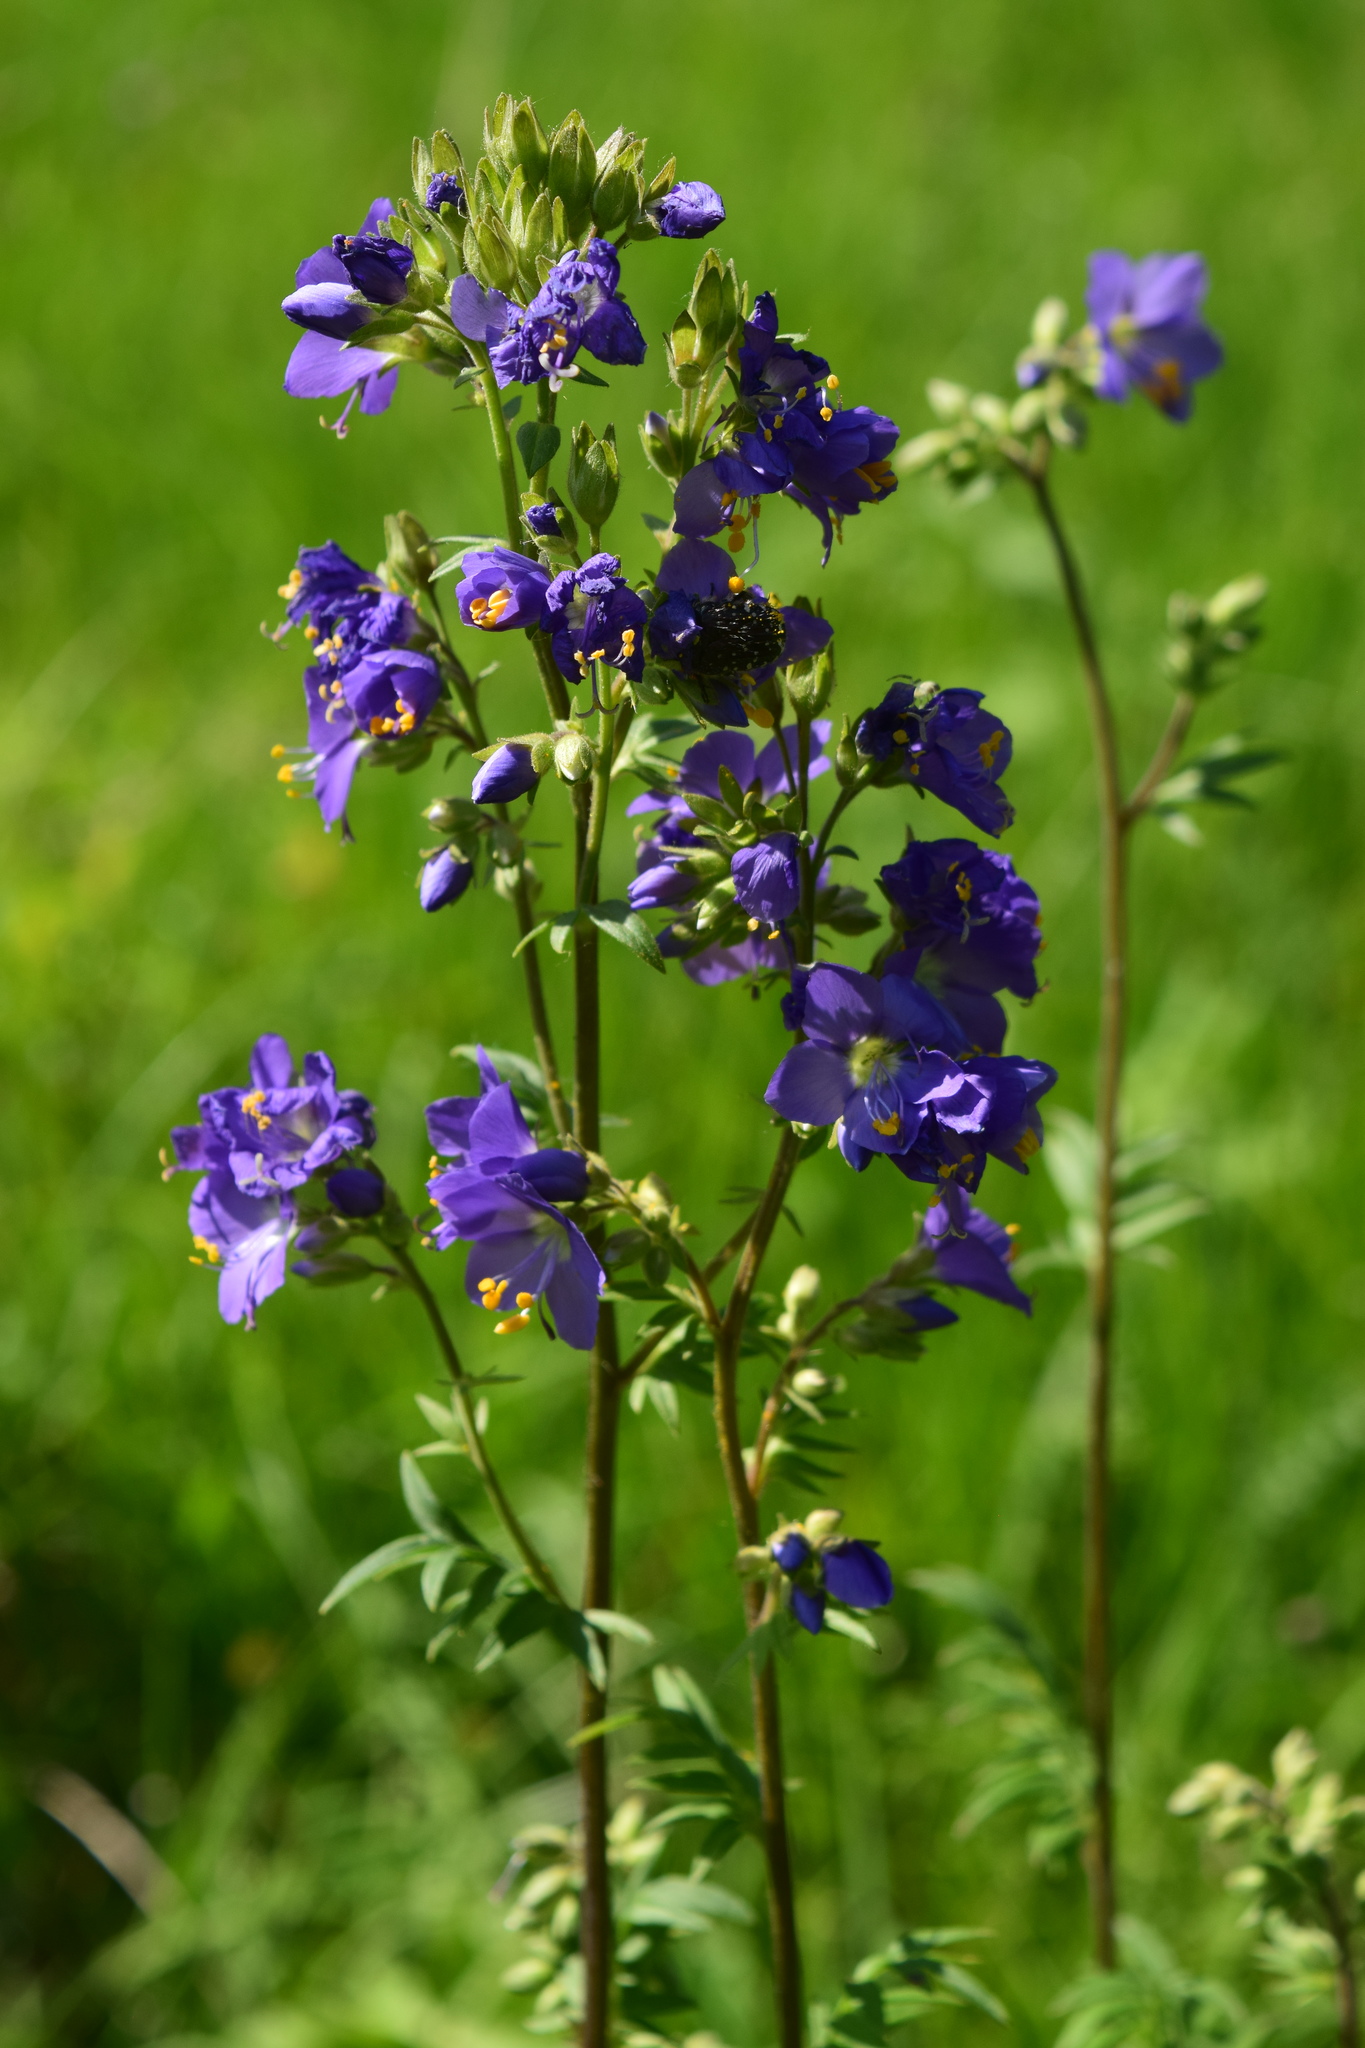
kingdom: Plantae
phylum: Tracheophyta
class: Magnoliopsida
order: Ericales
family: Polemoniaceae
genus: Polemonium
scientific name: Polemonium caeruleum
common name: Jacob's-ladder
